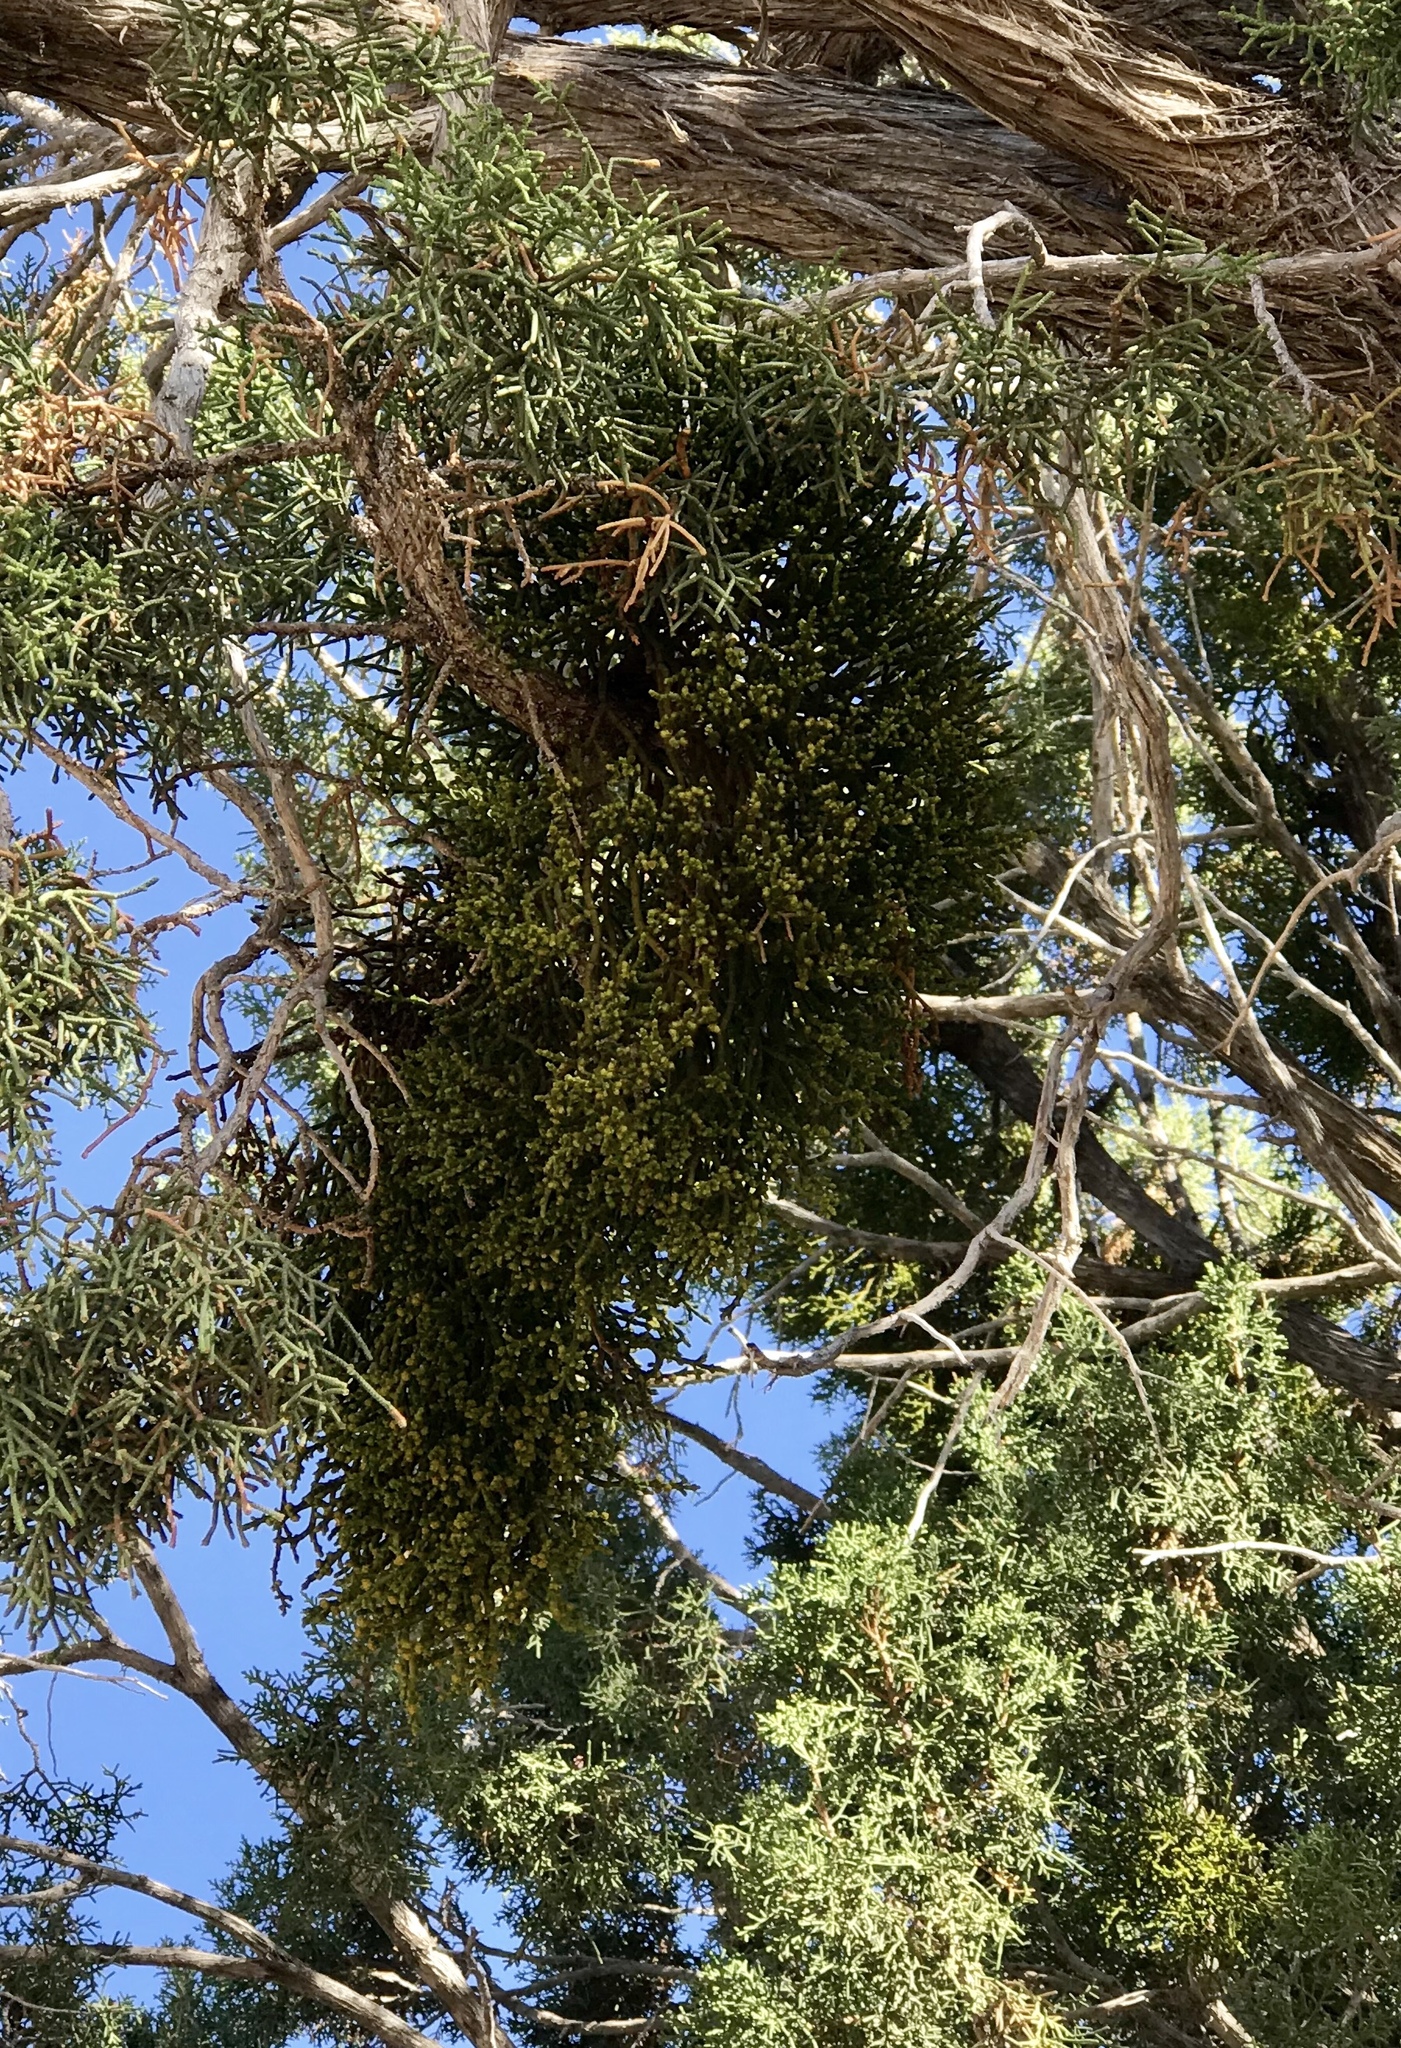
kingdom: Plantae
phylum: Tracheophyta
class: Magnoliopsida
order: Santalales
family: Viscaceae
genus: Phoradendron
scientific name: Phoradendron juniperinum
